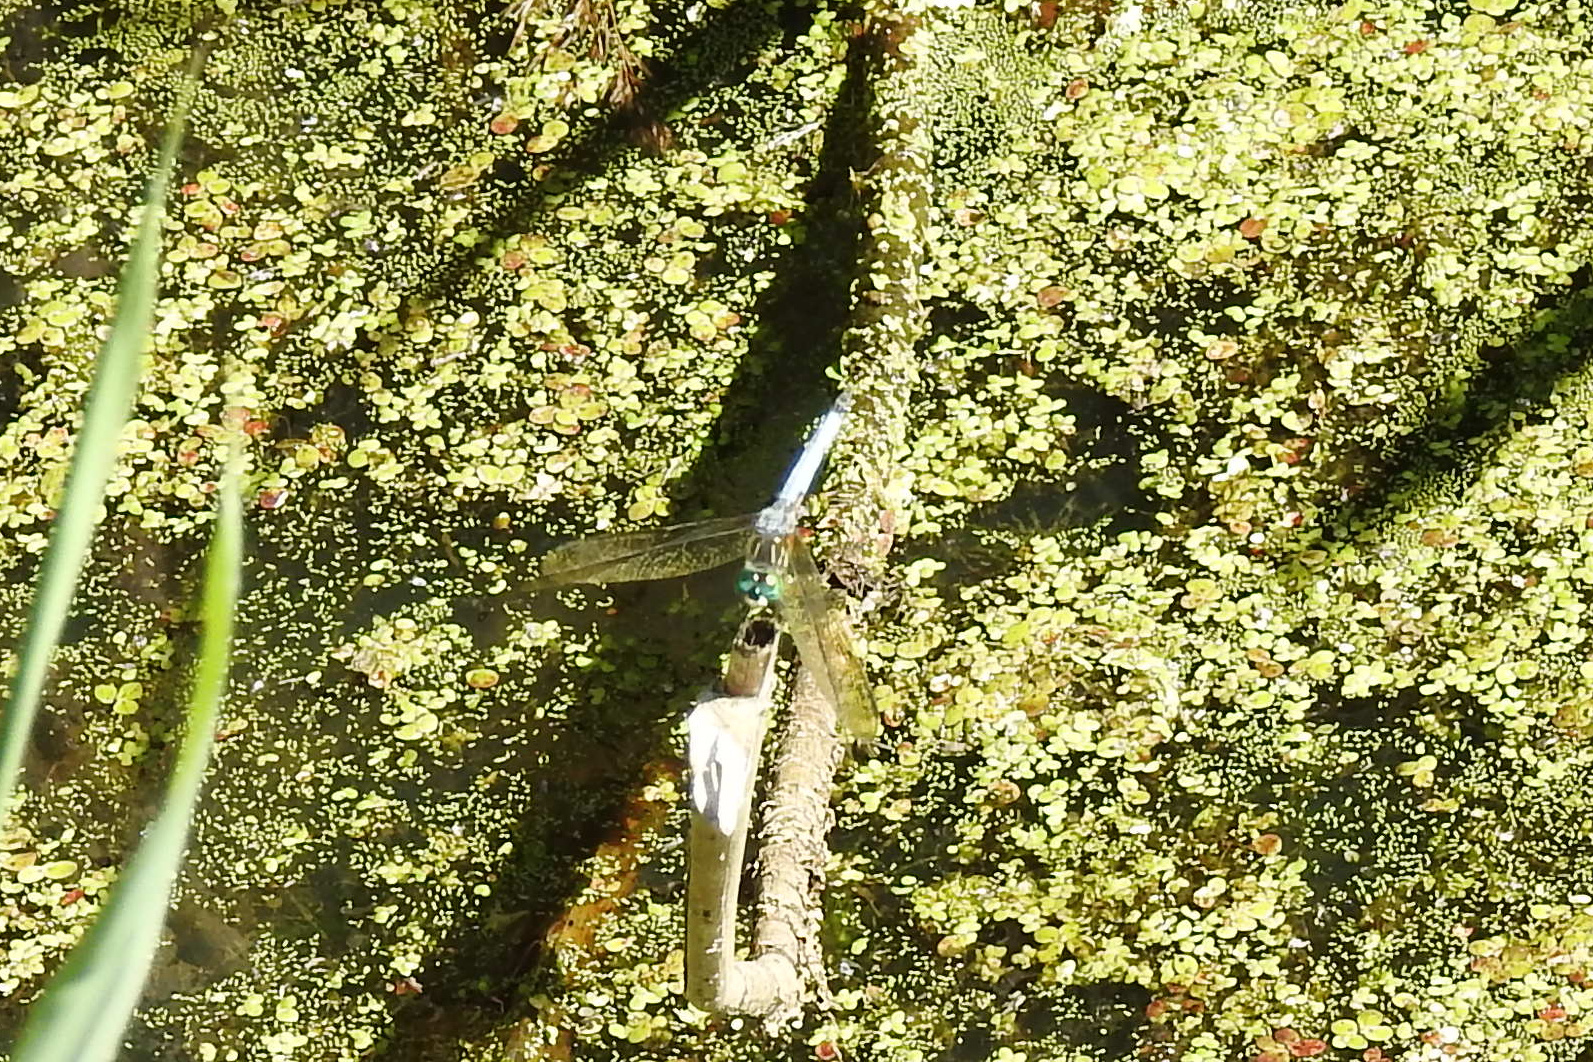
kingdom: Animalia
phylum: Arthropoda
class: Insecta
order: Odonata
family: Libellulidae
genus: Pachydiplax
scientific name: Pachydiplax longipennis
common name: Blue dasher
